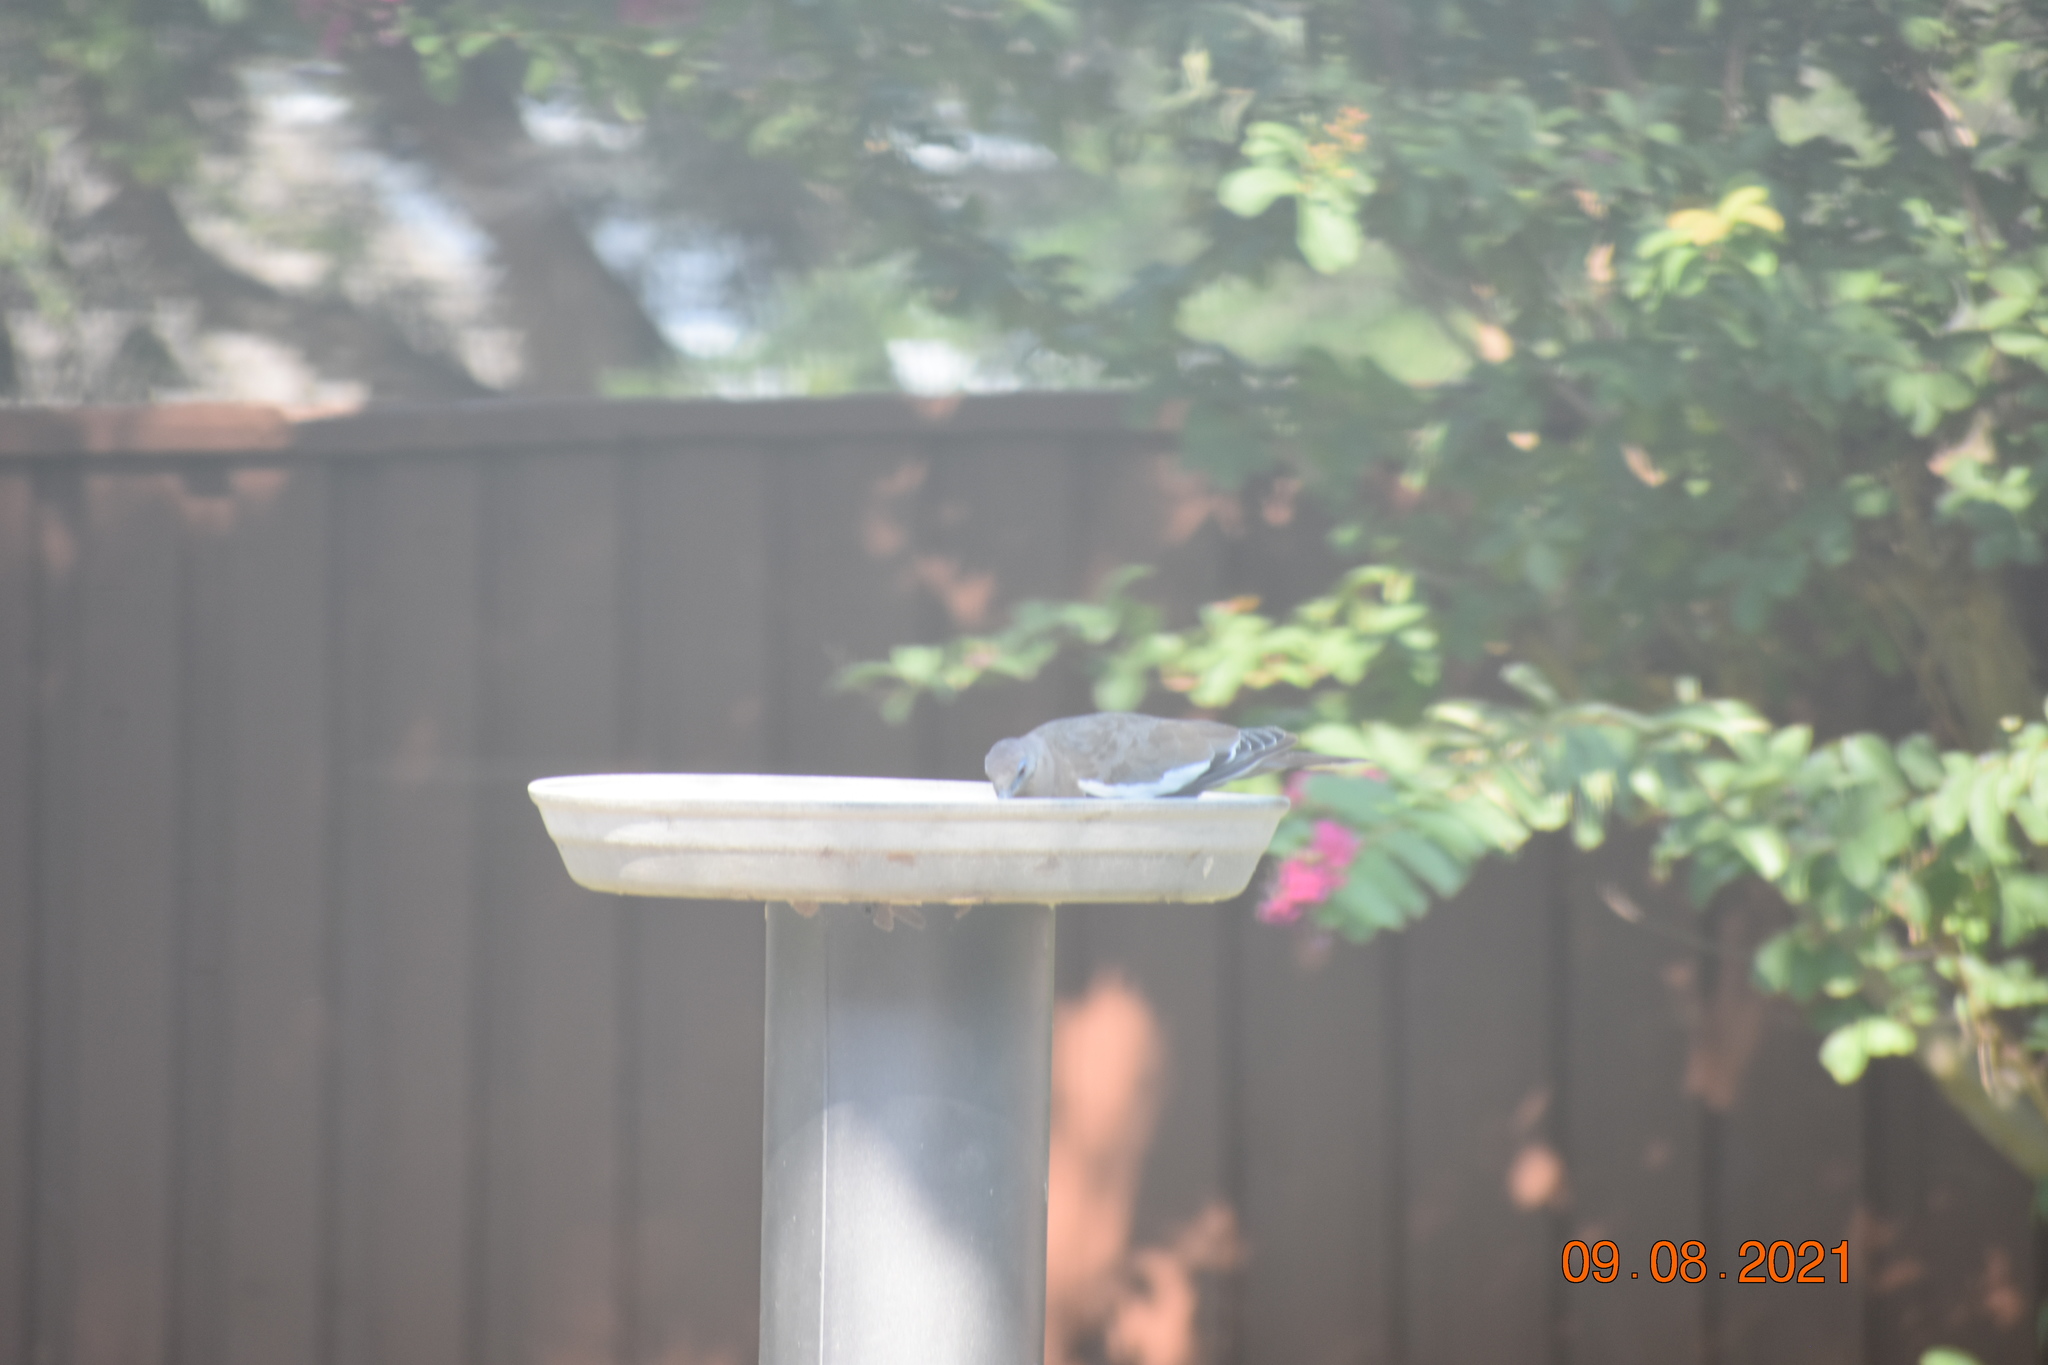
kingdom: Animalia
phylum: Chordata
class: Aves
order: Columbiformes
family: Columbidae
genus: Zenaida
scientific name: Zenaida asiatica
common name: White-winged dove
